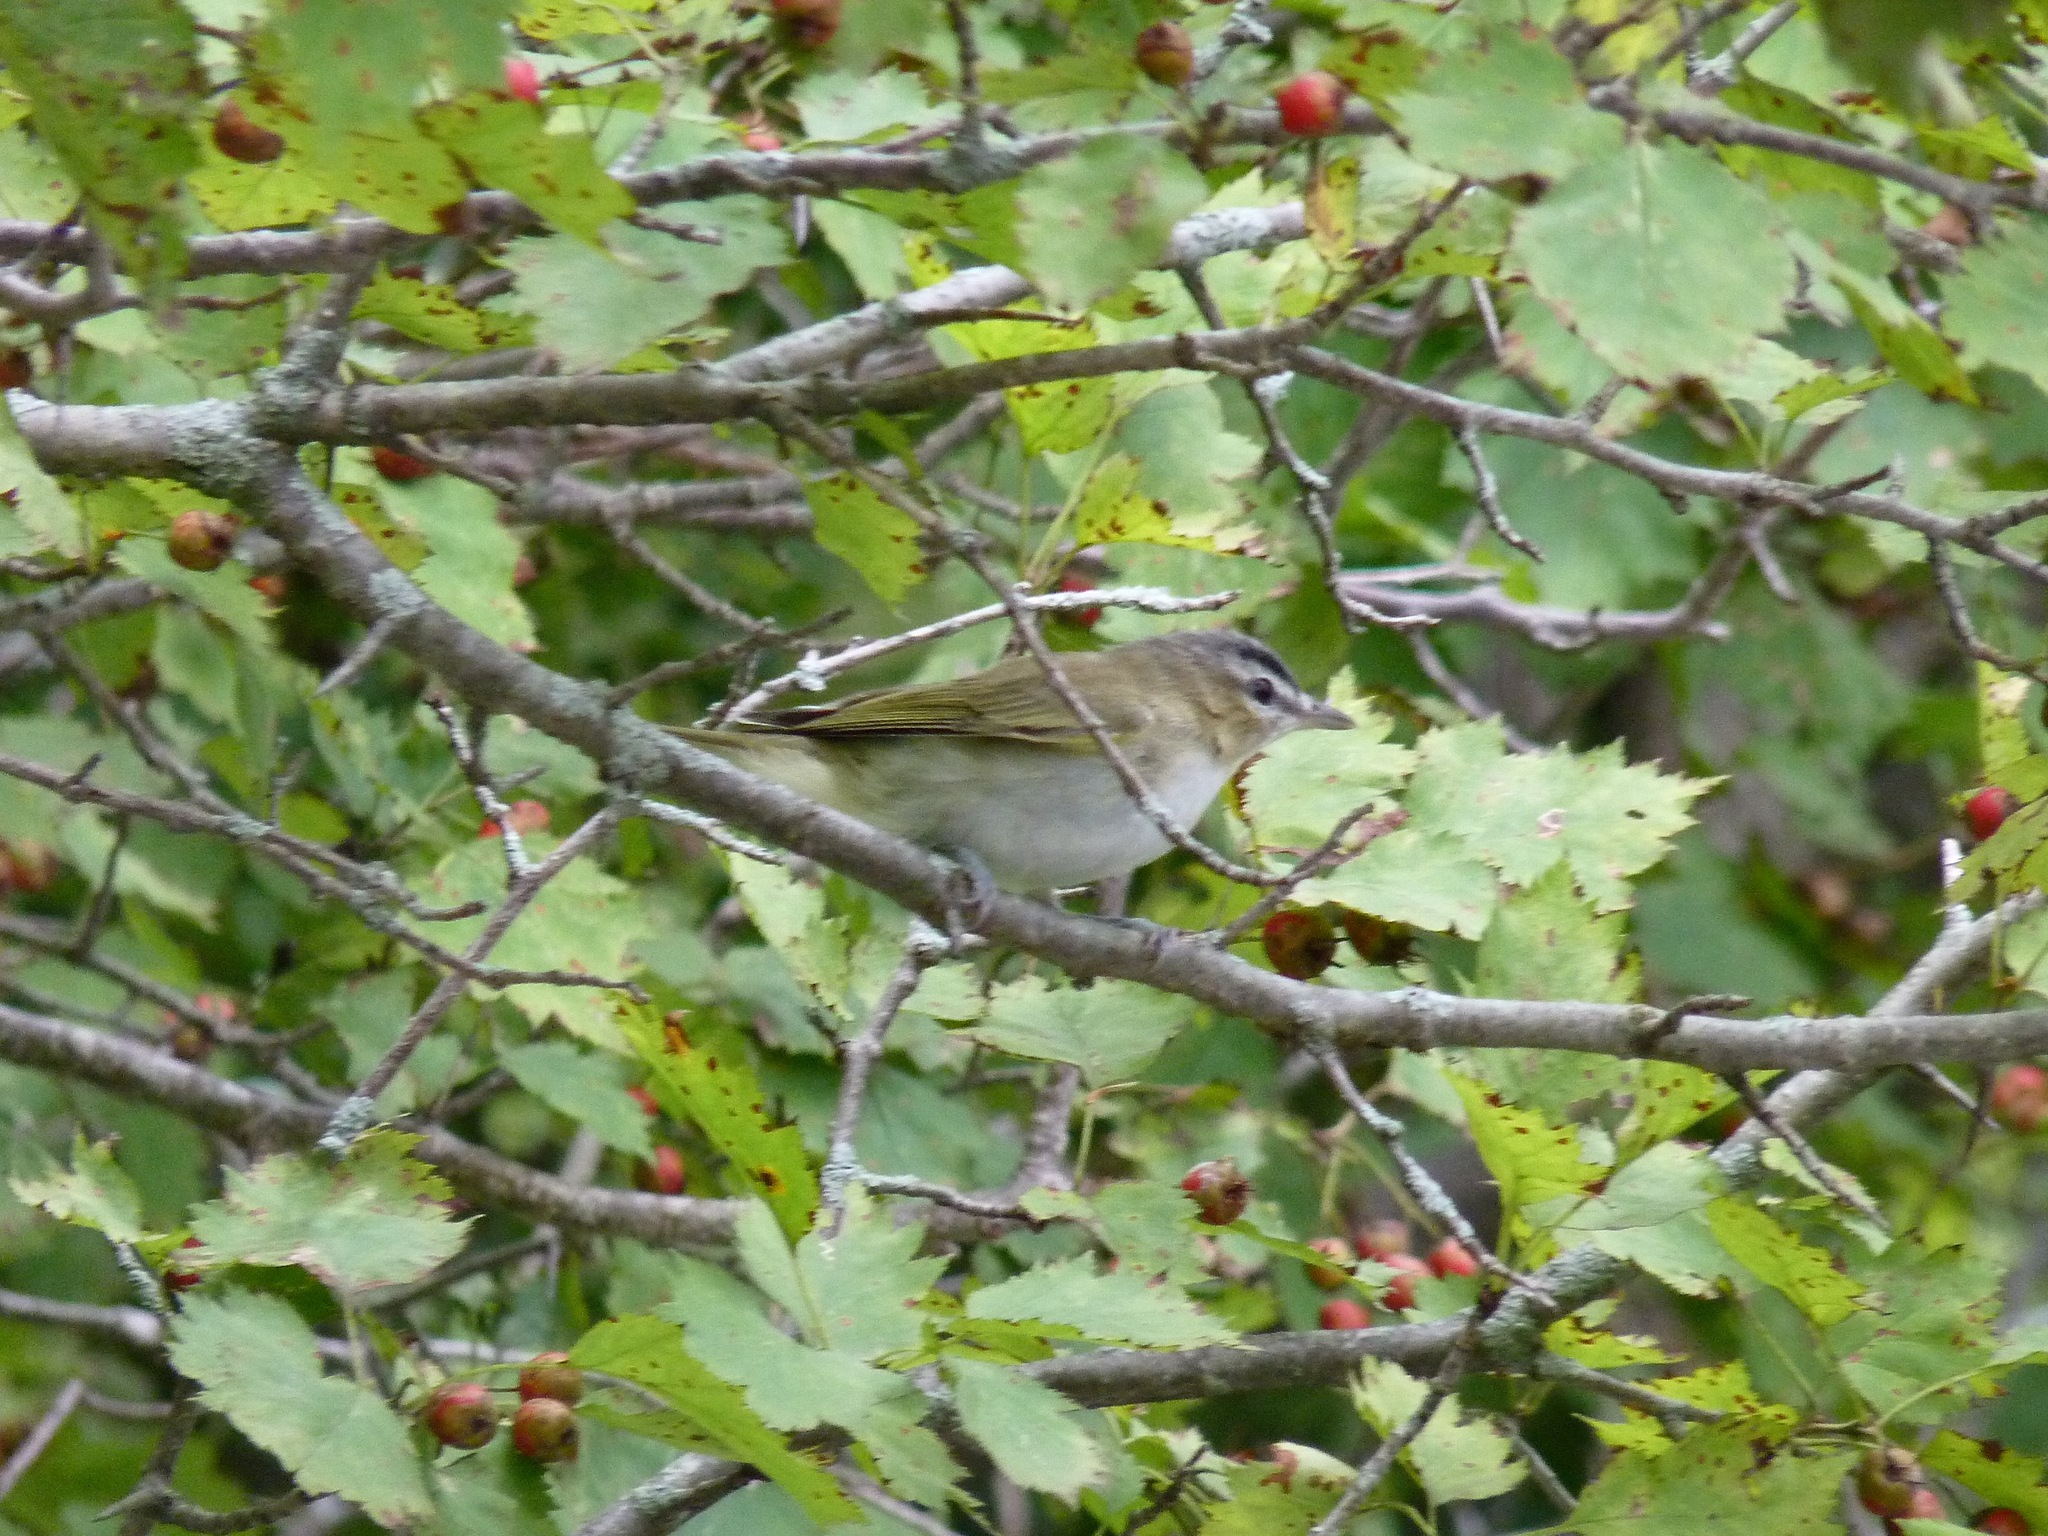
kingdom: Animalia
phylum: Chordata
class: Aves
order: Passeriformes
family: Vireonidae
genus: Vireo
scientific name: Vireo olivaceus
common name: Red-eyed vireo
